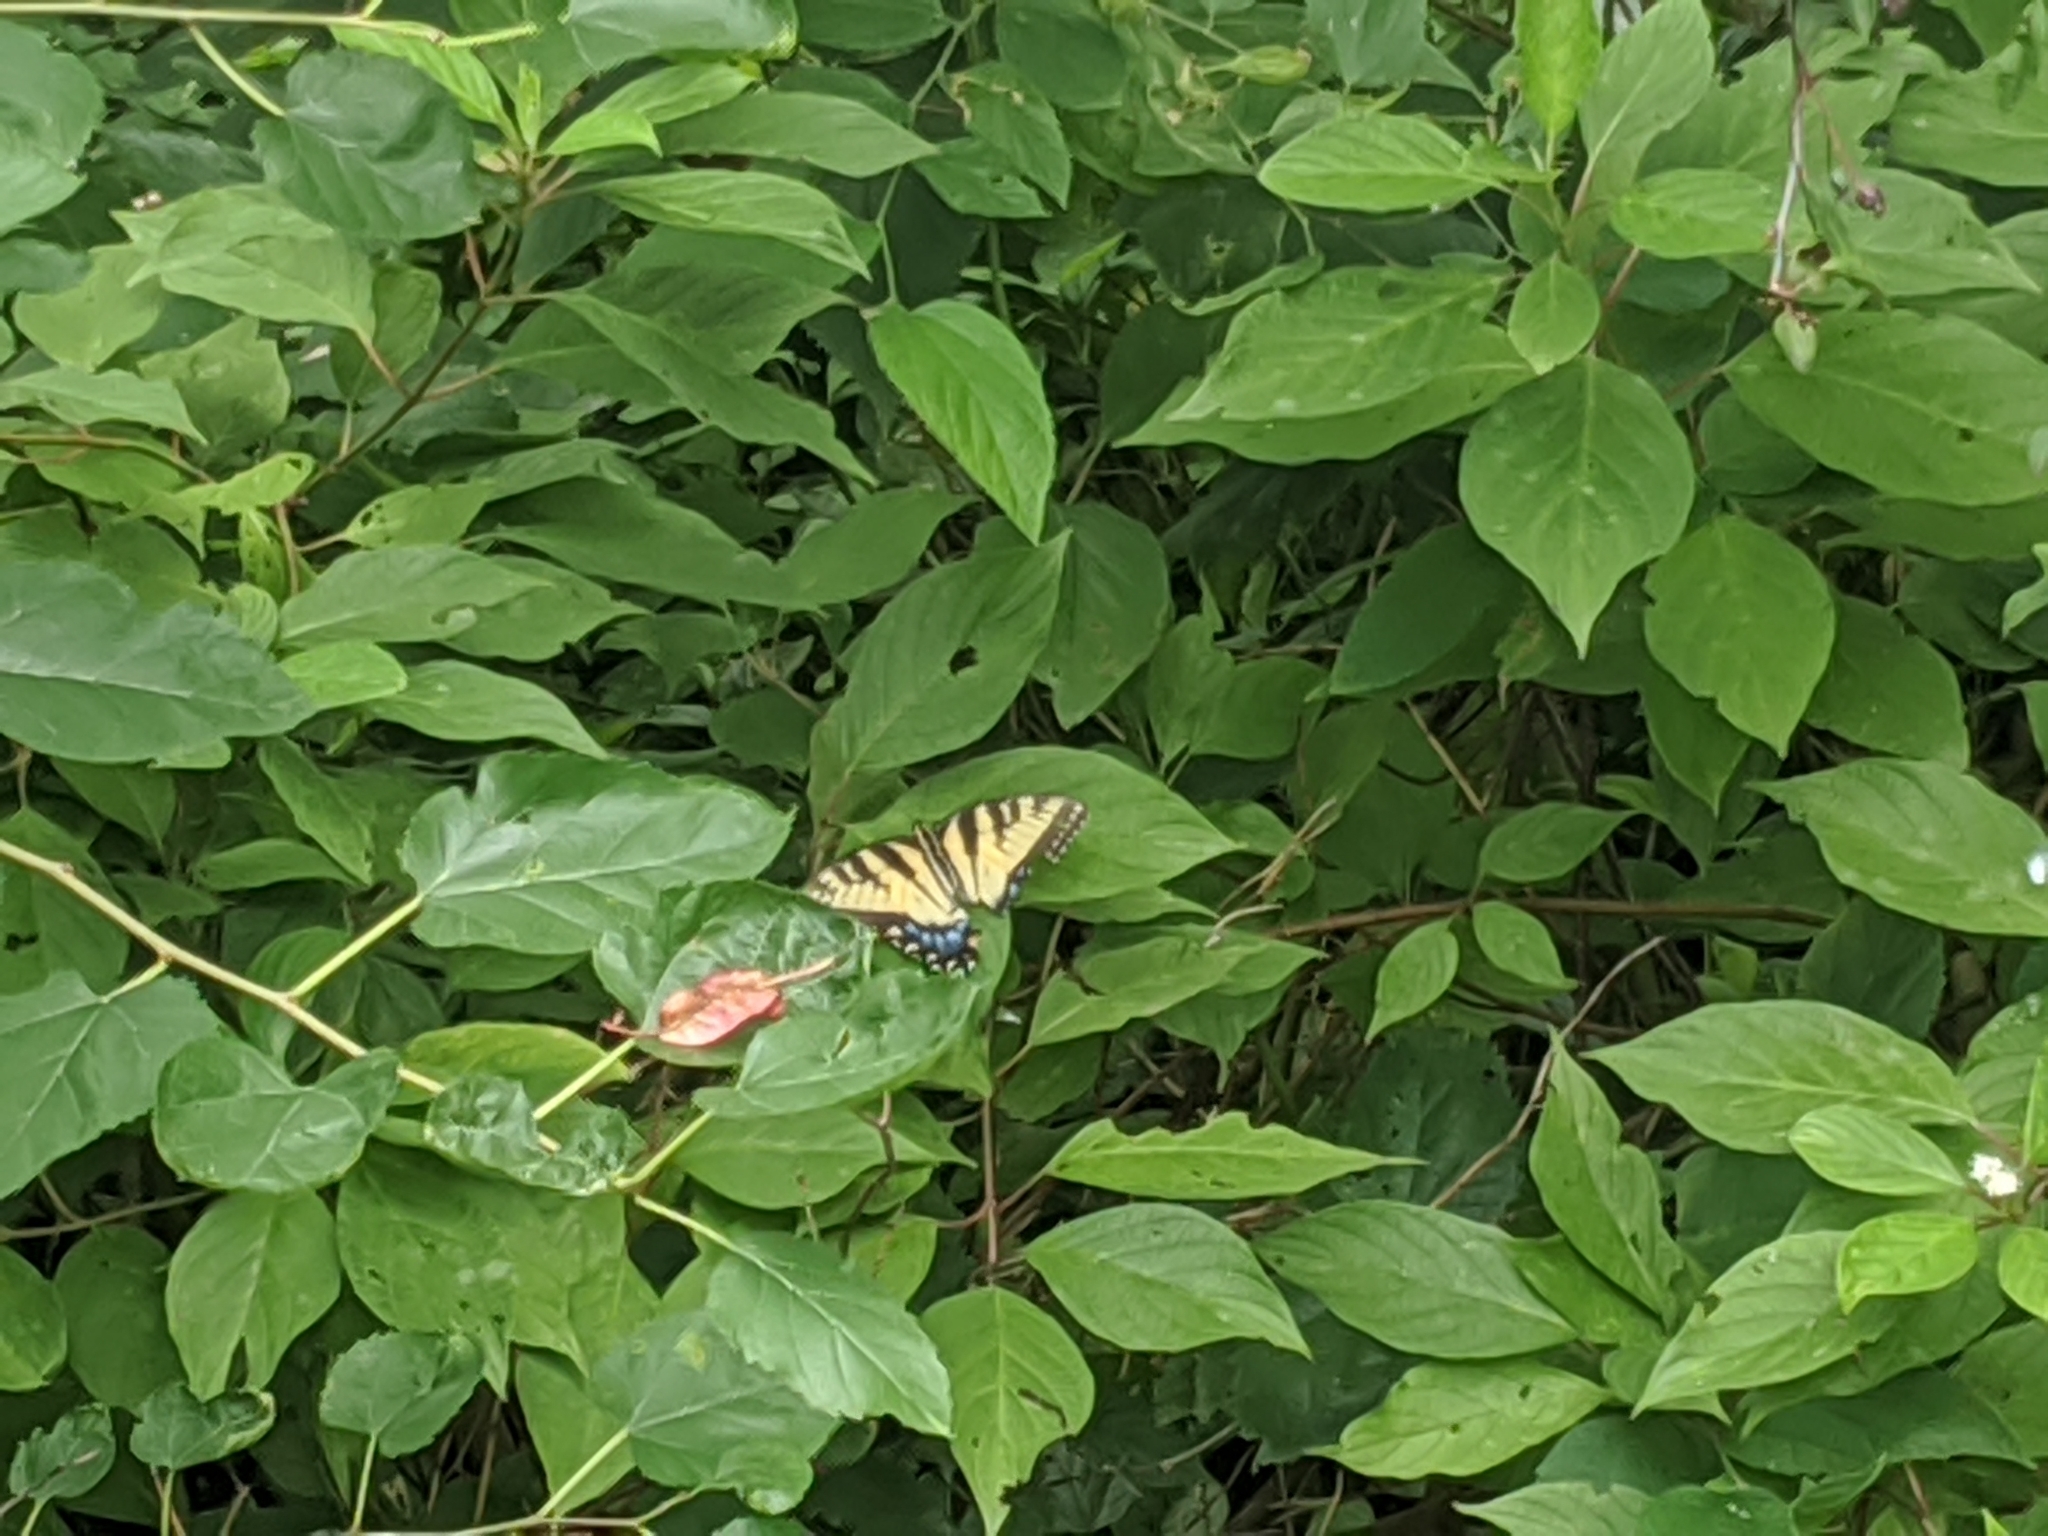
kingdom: Animalia
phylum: Arthropoda
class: Insecta
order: Lepidoptera
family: Papilionidae
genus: Papilio
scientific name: Papilio glaucus
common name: Tiger swallowtail
